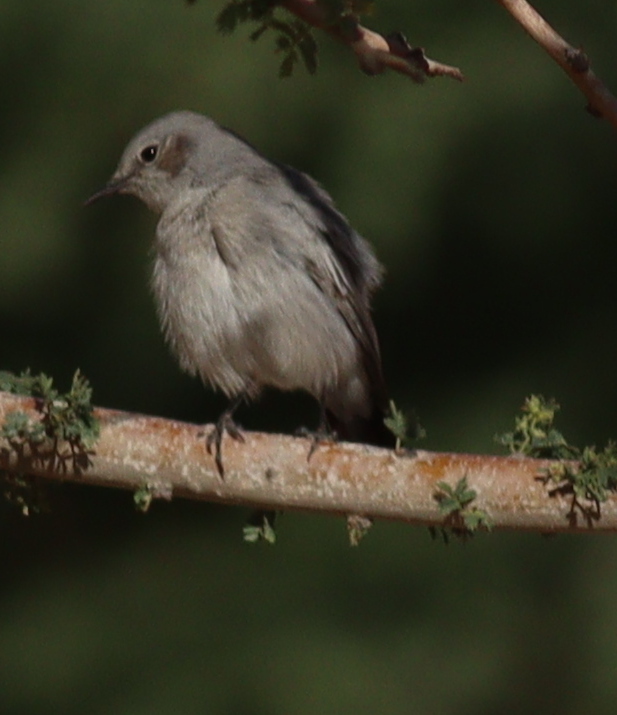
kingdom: Animalia
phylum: Chordata
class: Aves
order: Passeriformes
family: Muscicapidae
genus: Oenanthe
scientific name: Oenanthe melanura
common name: Blackstart
